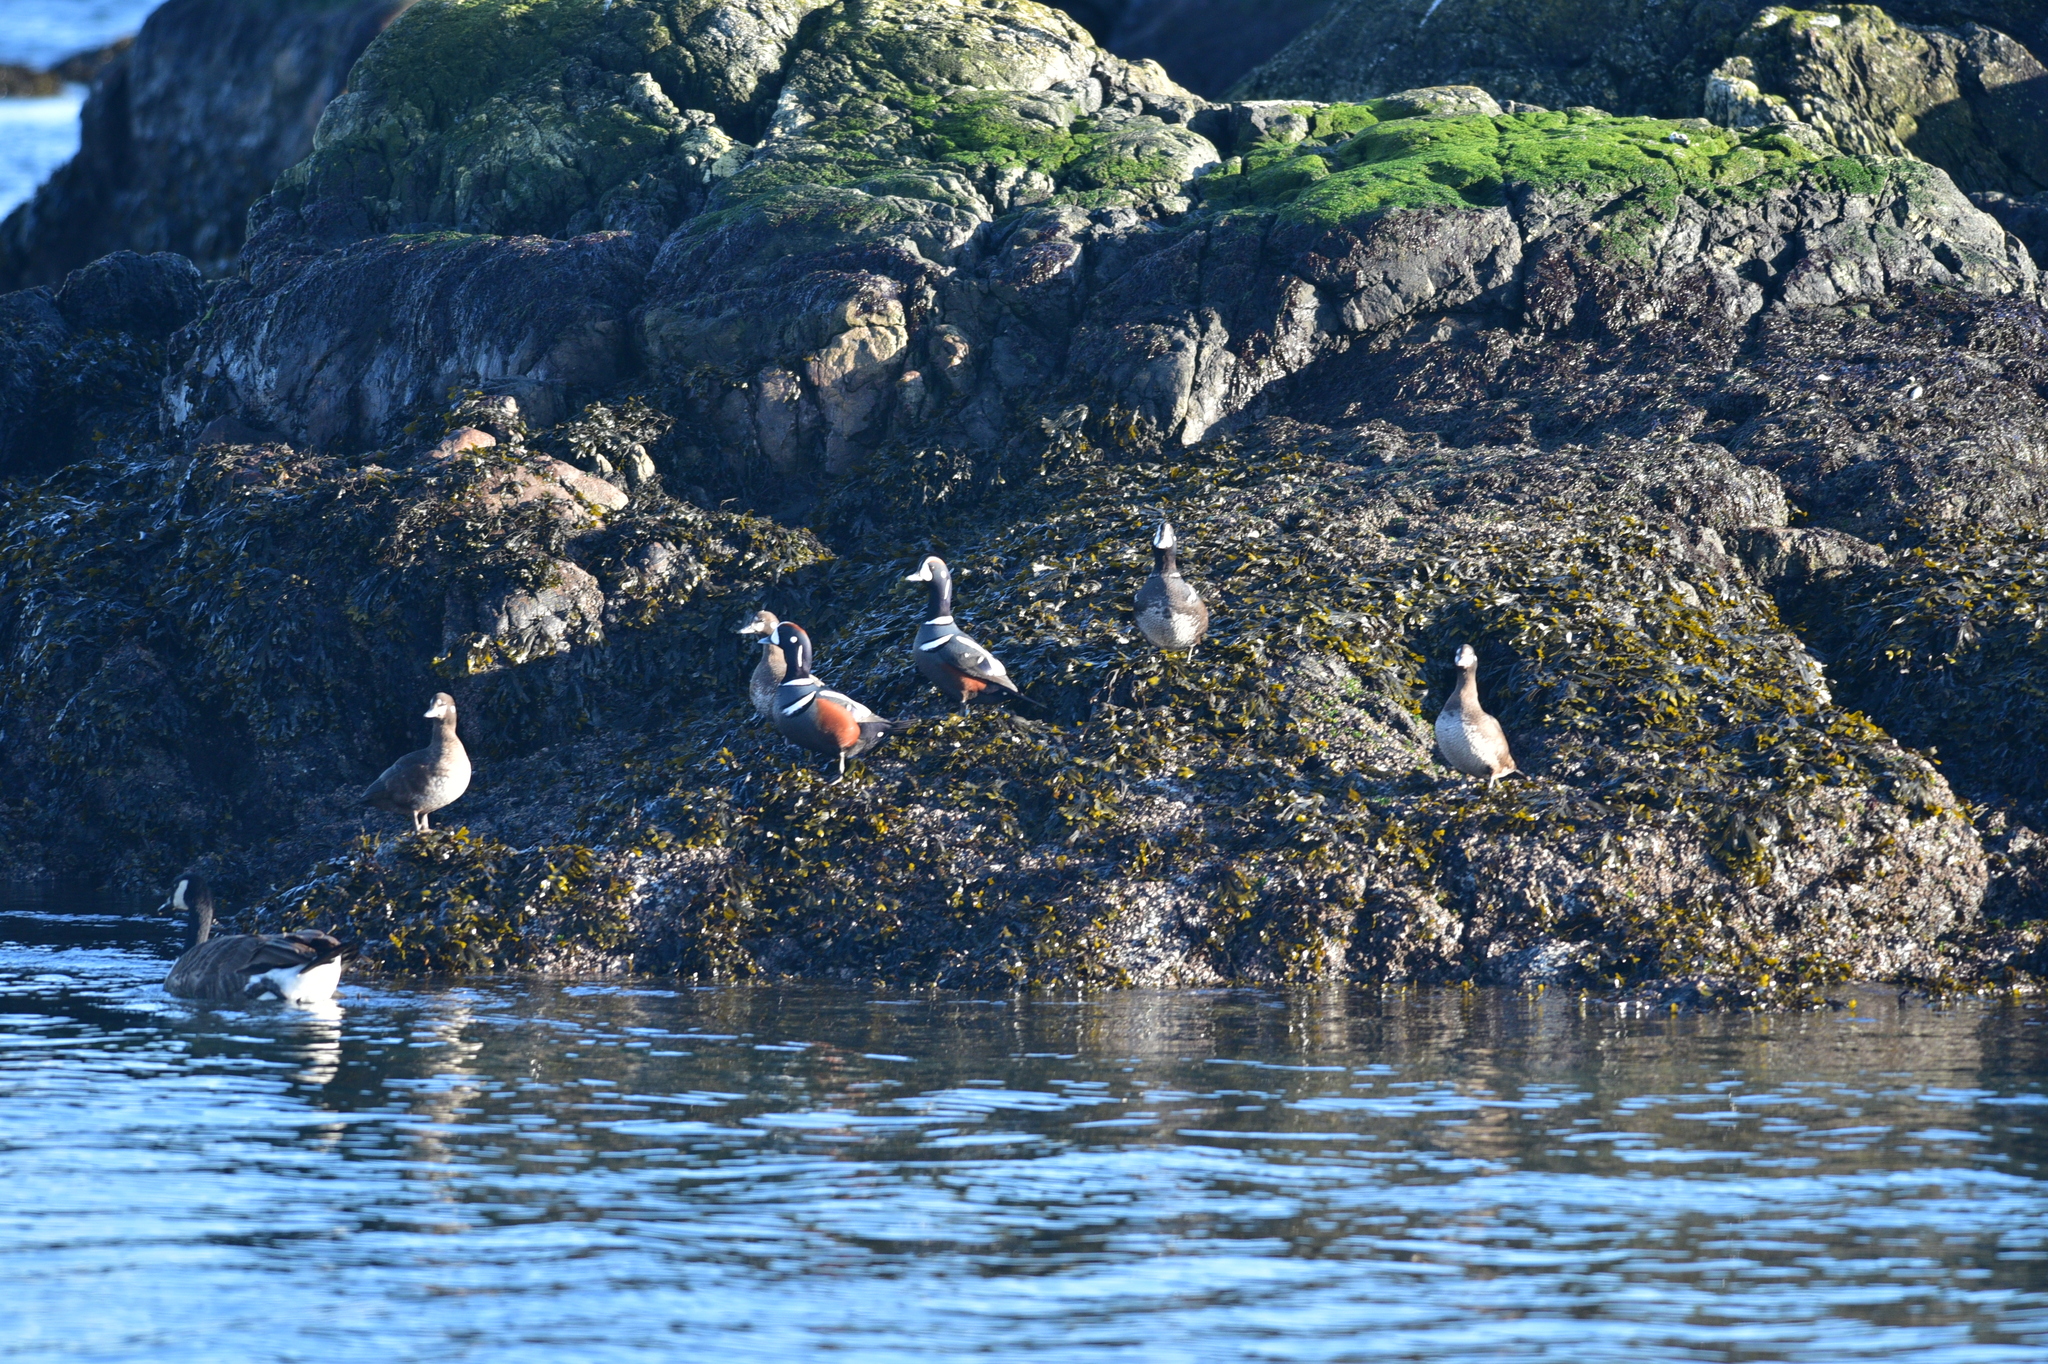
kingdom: Animalia
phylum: Chordata
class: Aves
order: Anseriformes
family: Anatidae
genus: Histrionicus
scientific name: Histrionicus histrionicus
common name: Harlequin duck
